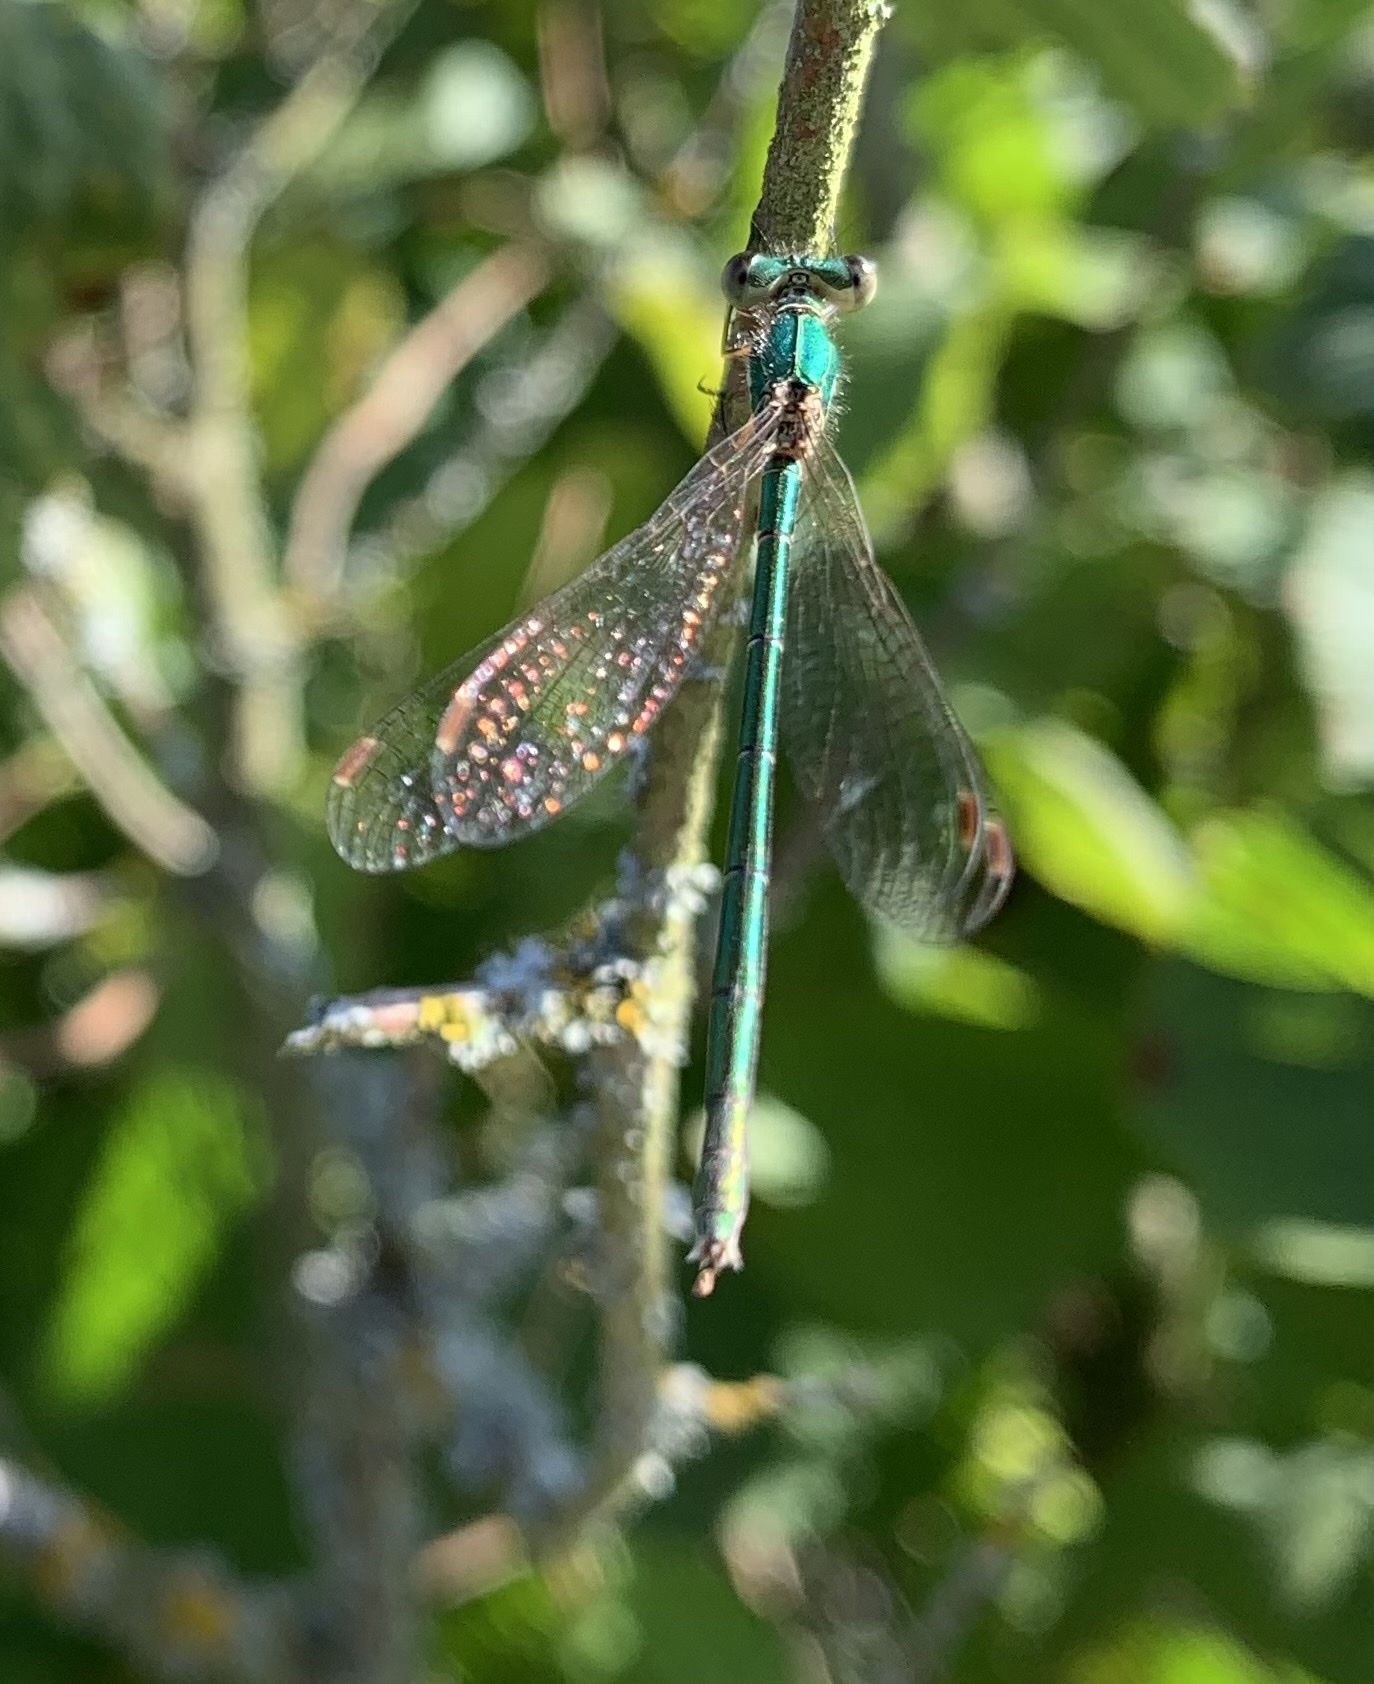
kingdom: Animalia
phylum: Arthropoda
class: Insecta
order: Odonata
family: Lestidae
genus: Lestes
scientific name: Lestes virens
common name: Small emerald spreadwing
